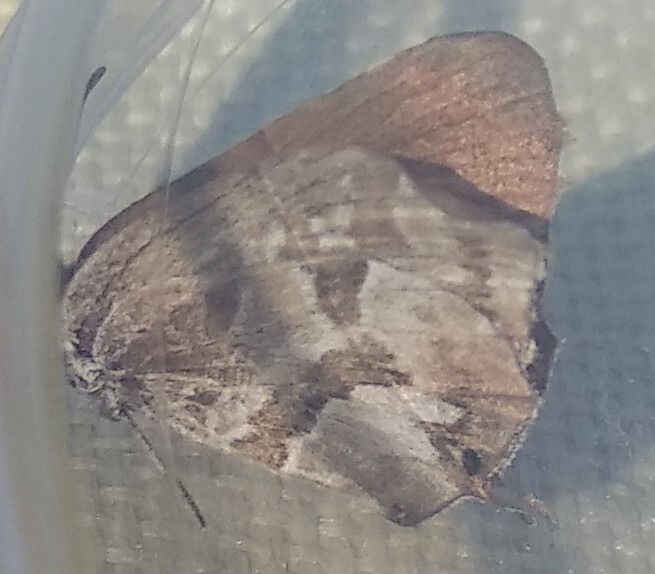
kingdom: Animalia
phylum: Arthropoda
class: Insecta
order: Lepidoptera
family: Lycaenidae
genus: Cacyreus
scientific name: Cacyreus marshalli
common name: Geranium bronze
